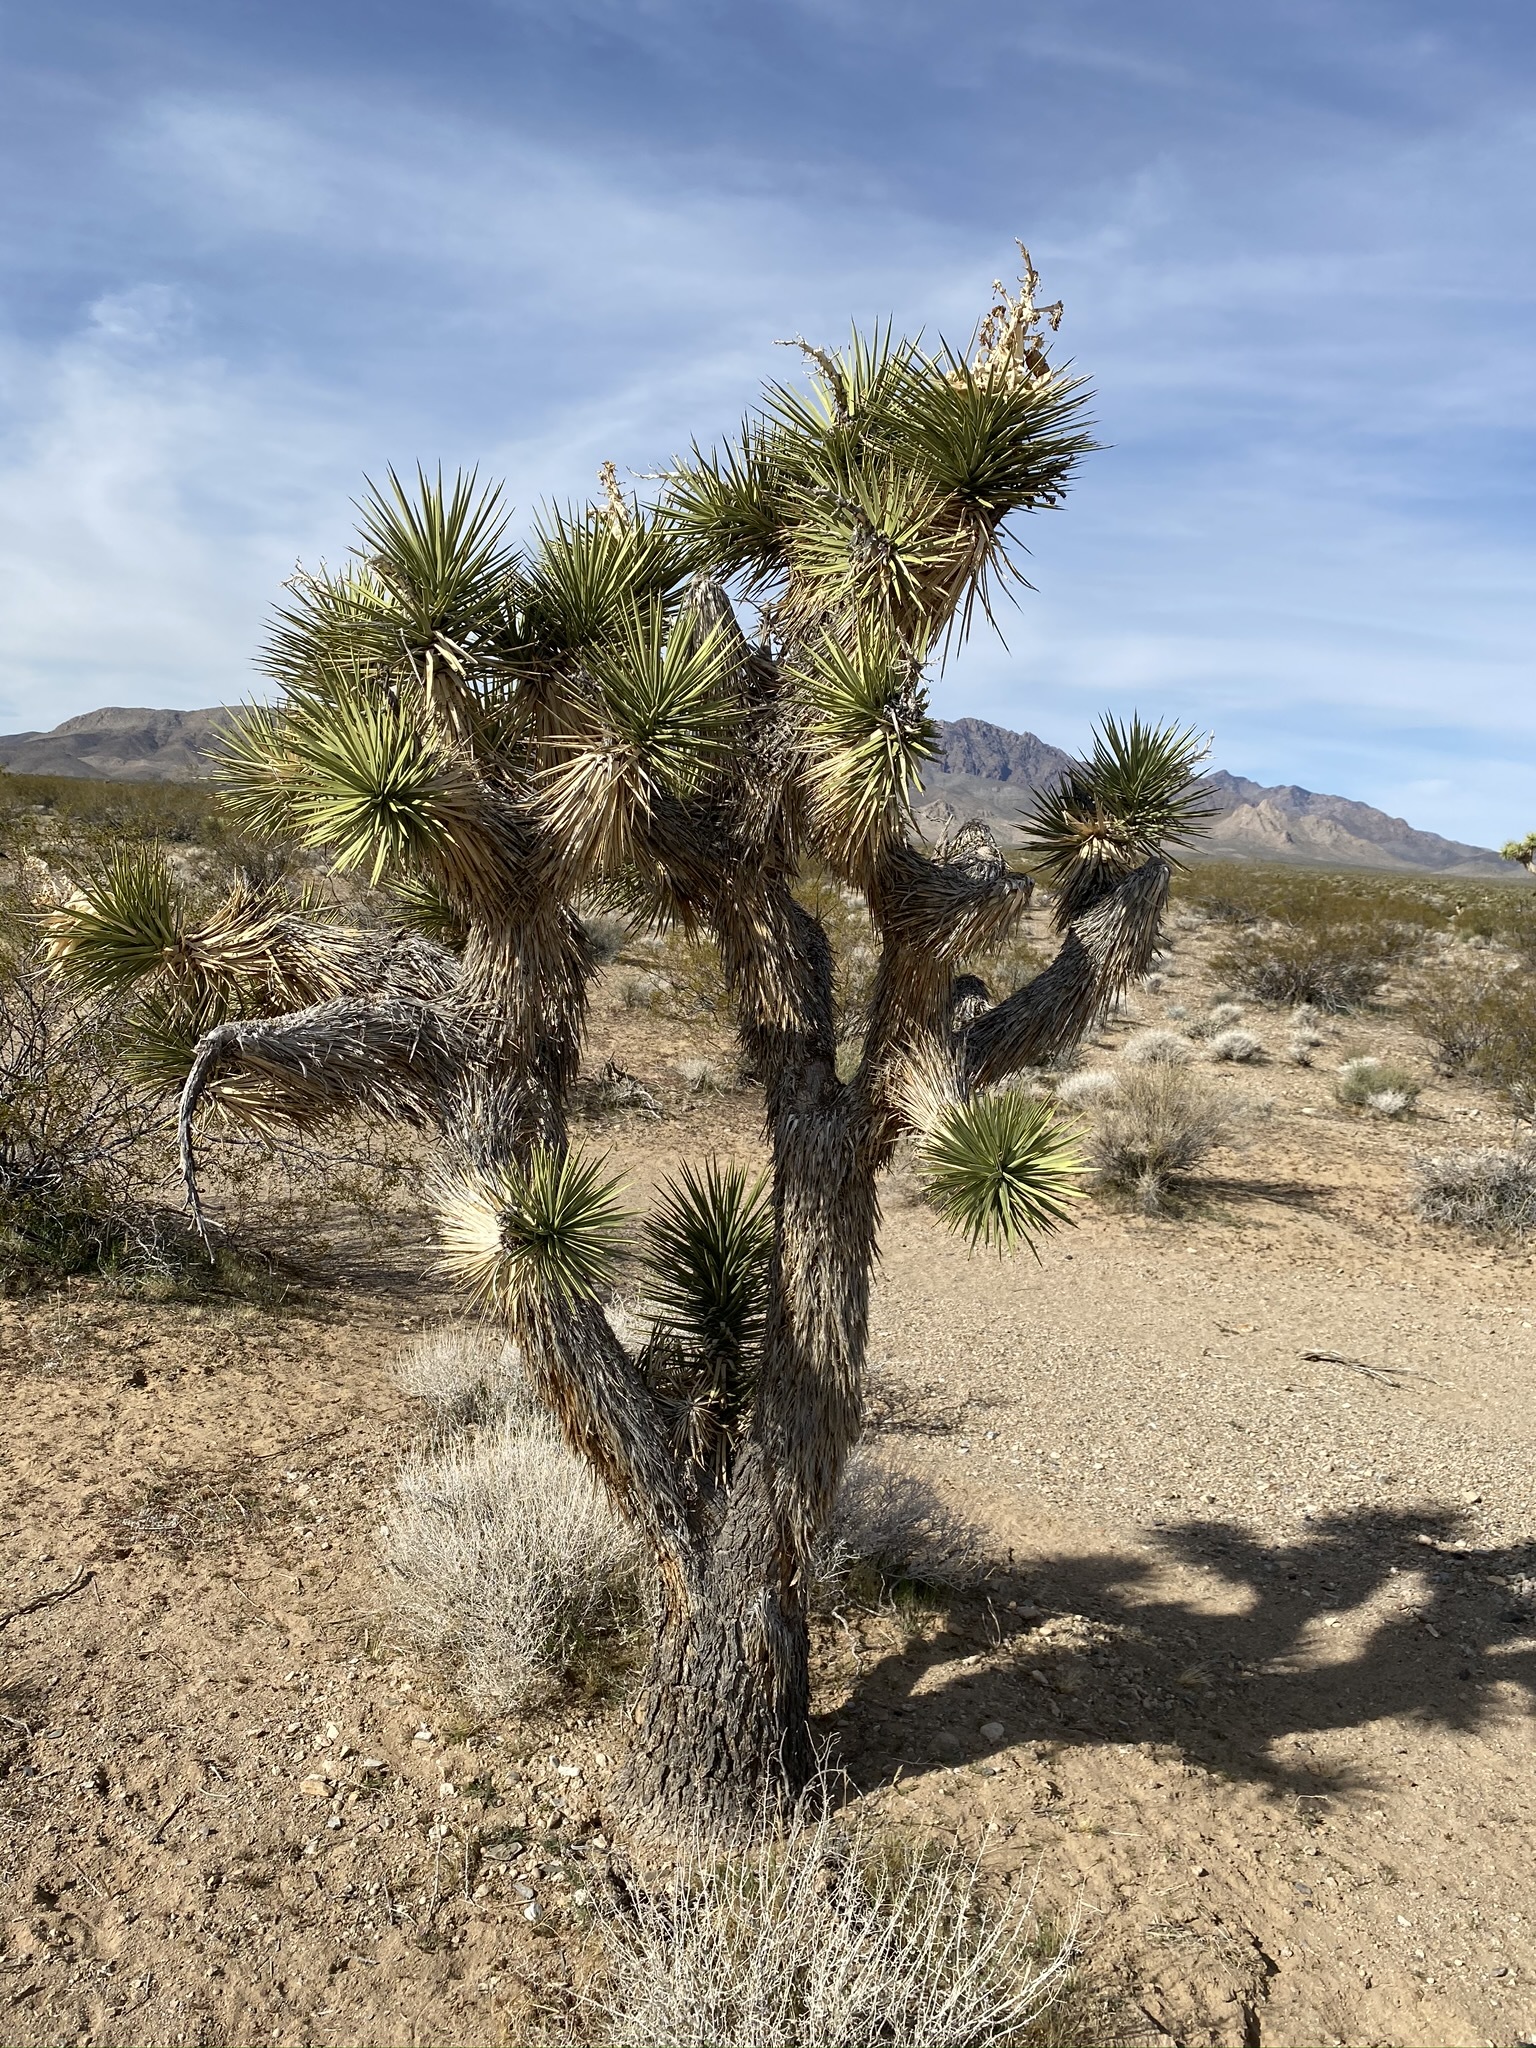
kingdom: Plantae
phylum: Tracheophyta
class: Liliopsida
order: Asparagales
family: Asparagaceae
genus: Yucca
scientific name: Yucca brevifolia
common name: Joshua tree
